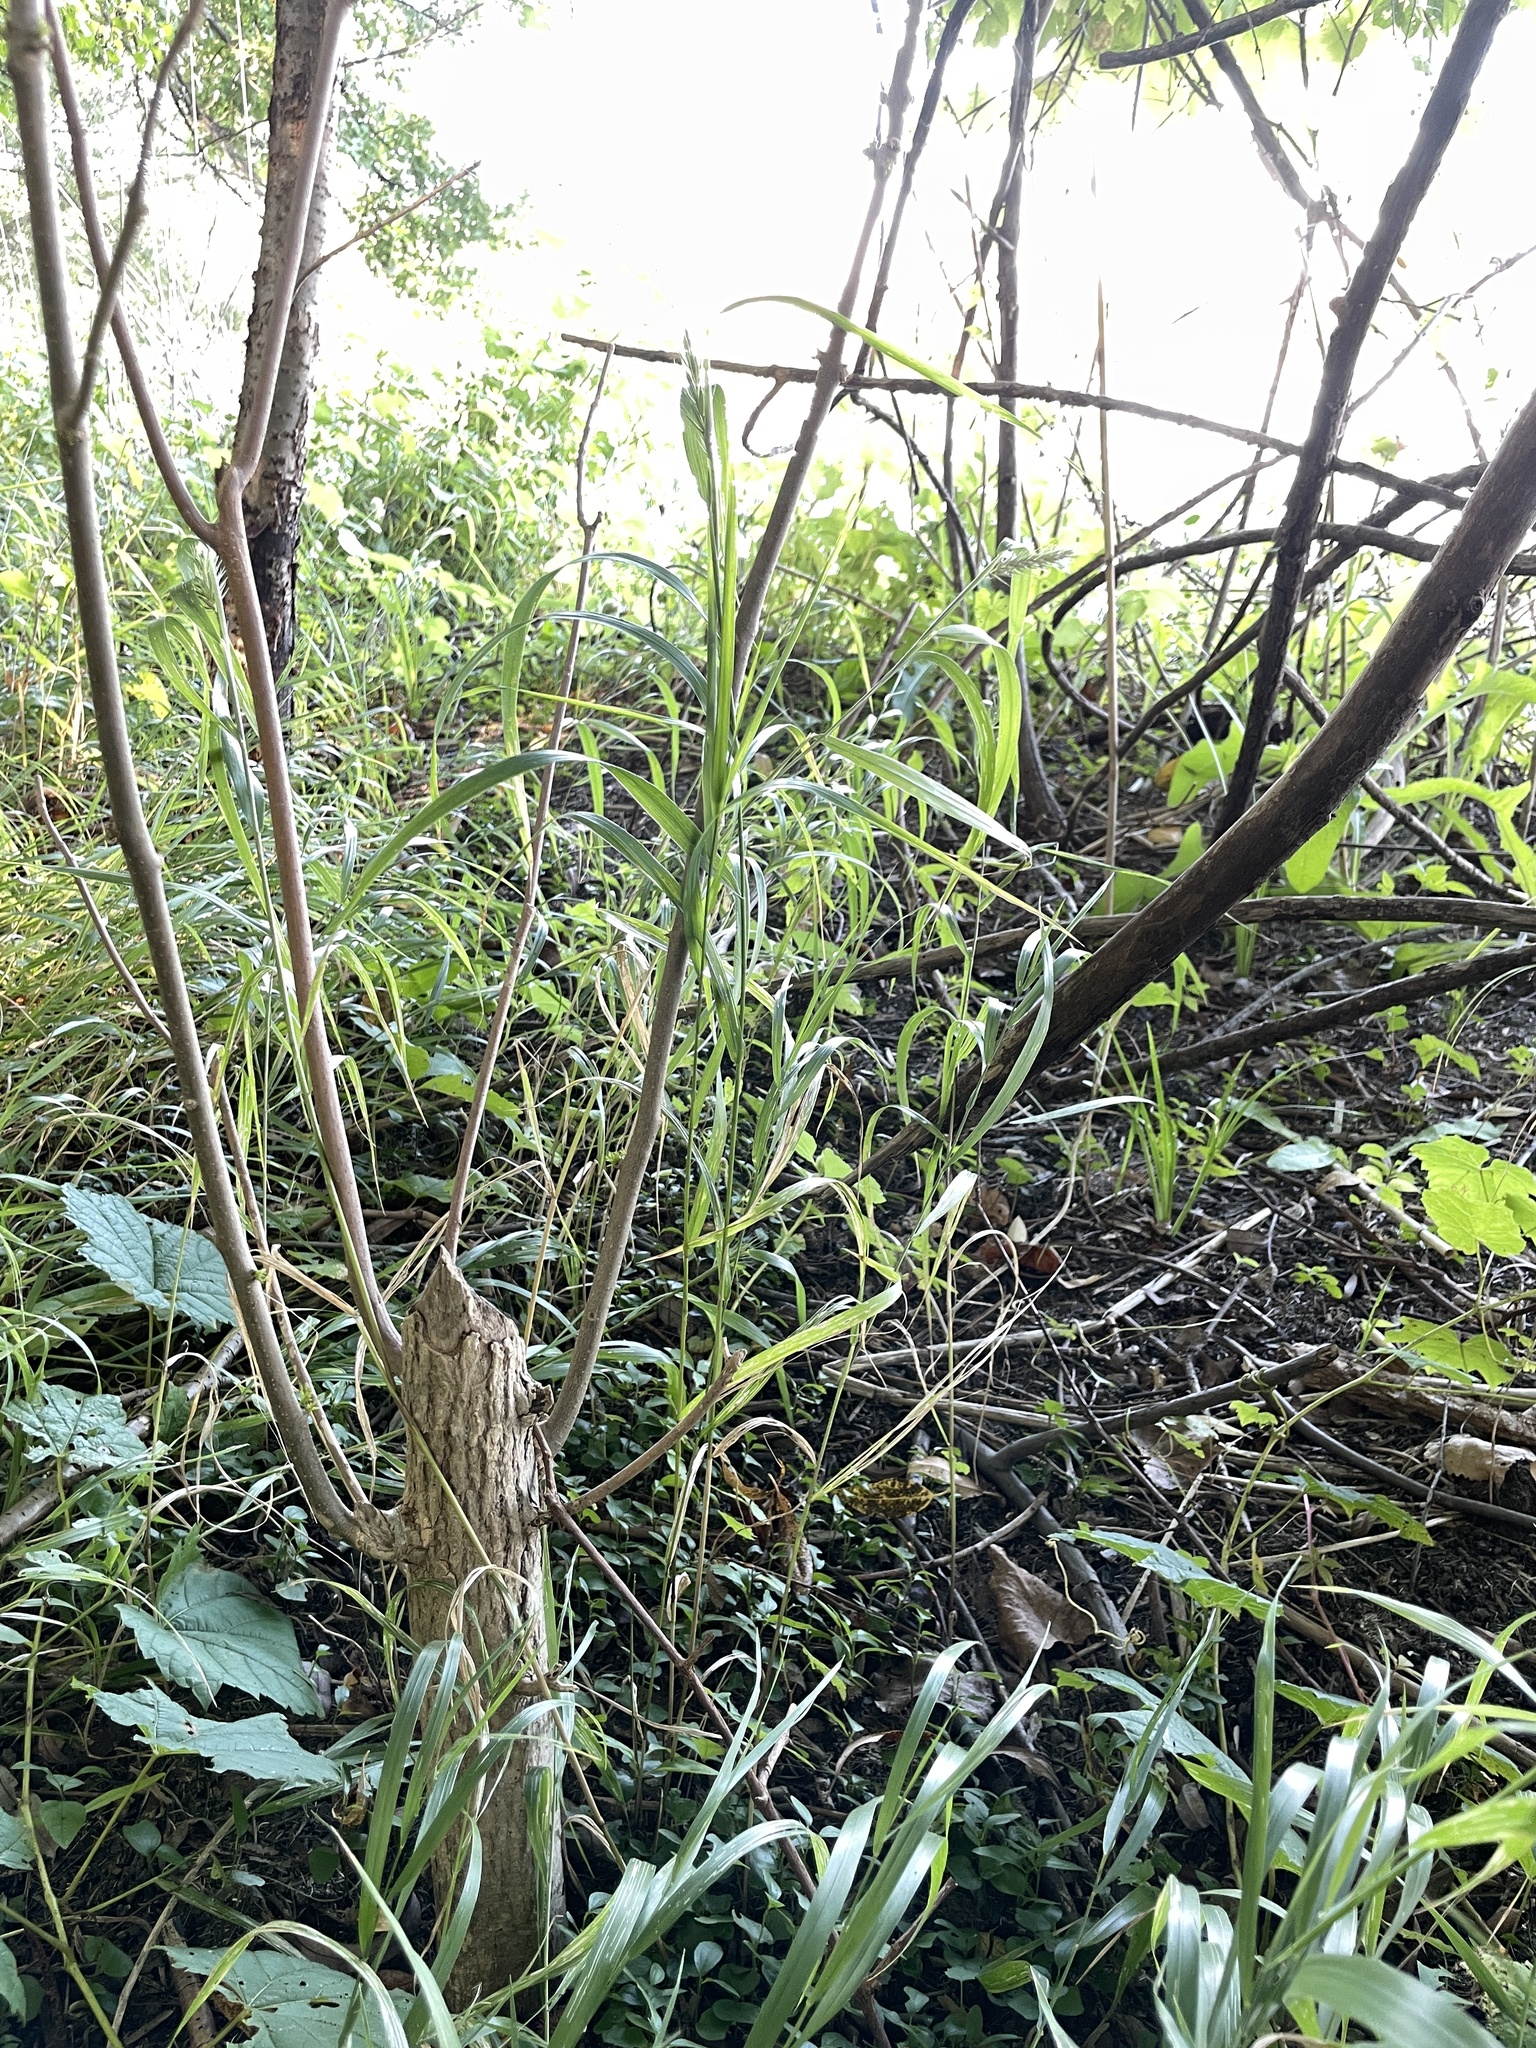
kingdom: Animalia
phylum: Chordata
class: Mammalia
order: Rodentia
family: Castoridae
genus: Castor
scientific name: Castor canadensis
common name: American beaver
